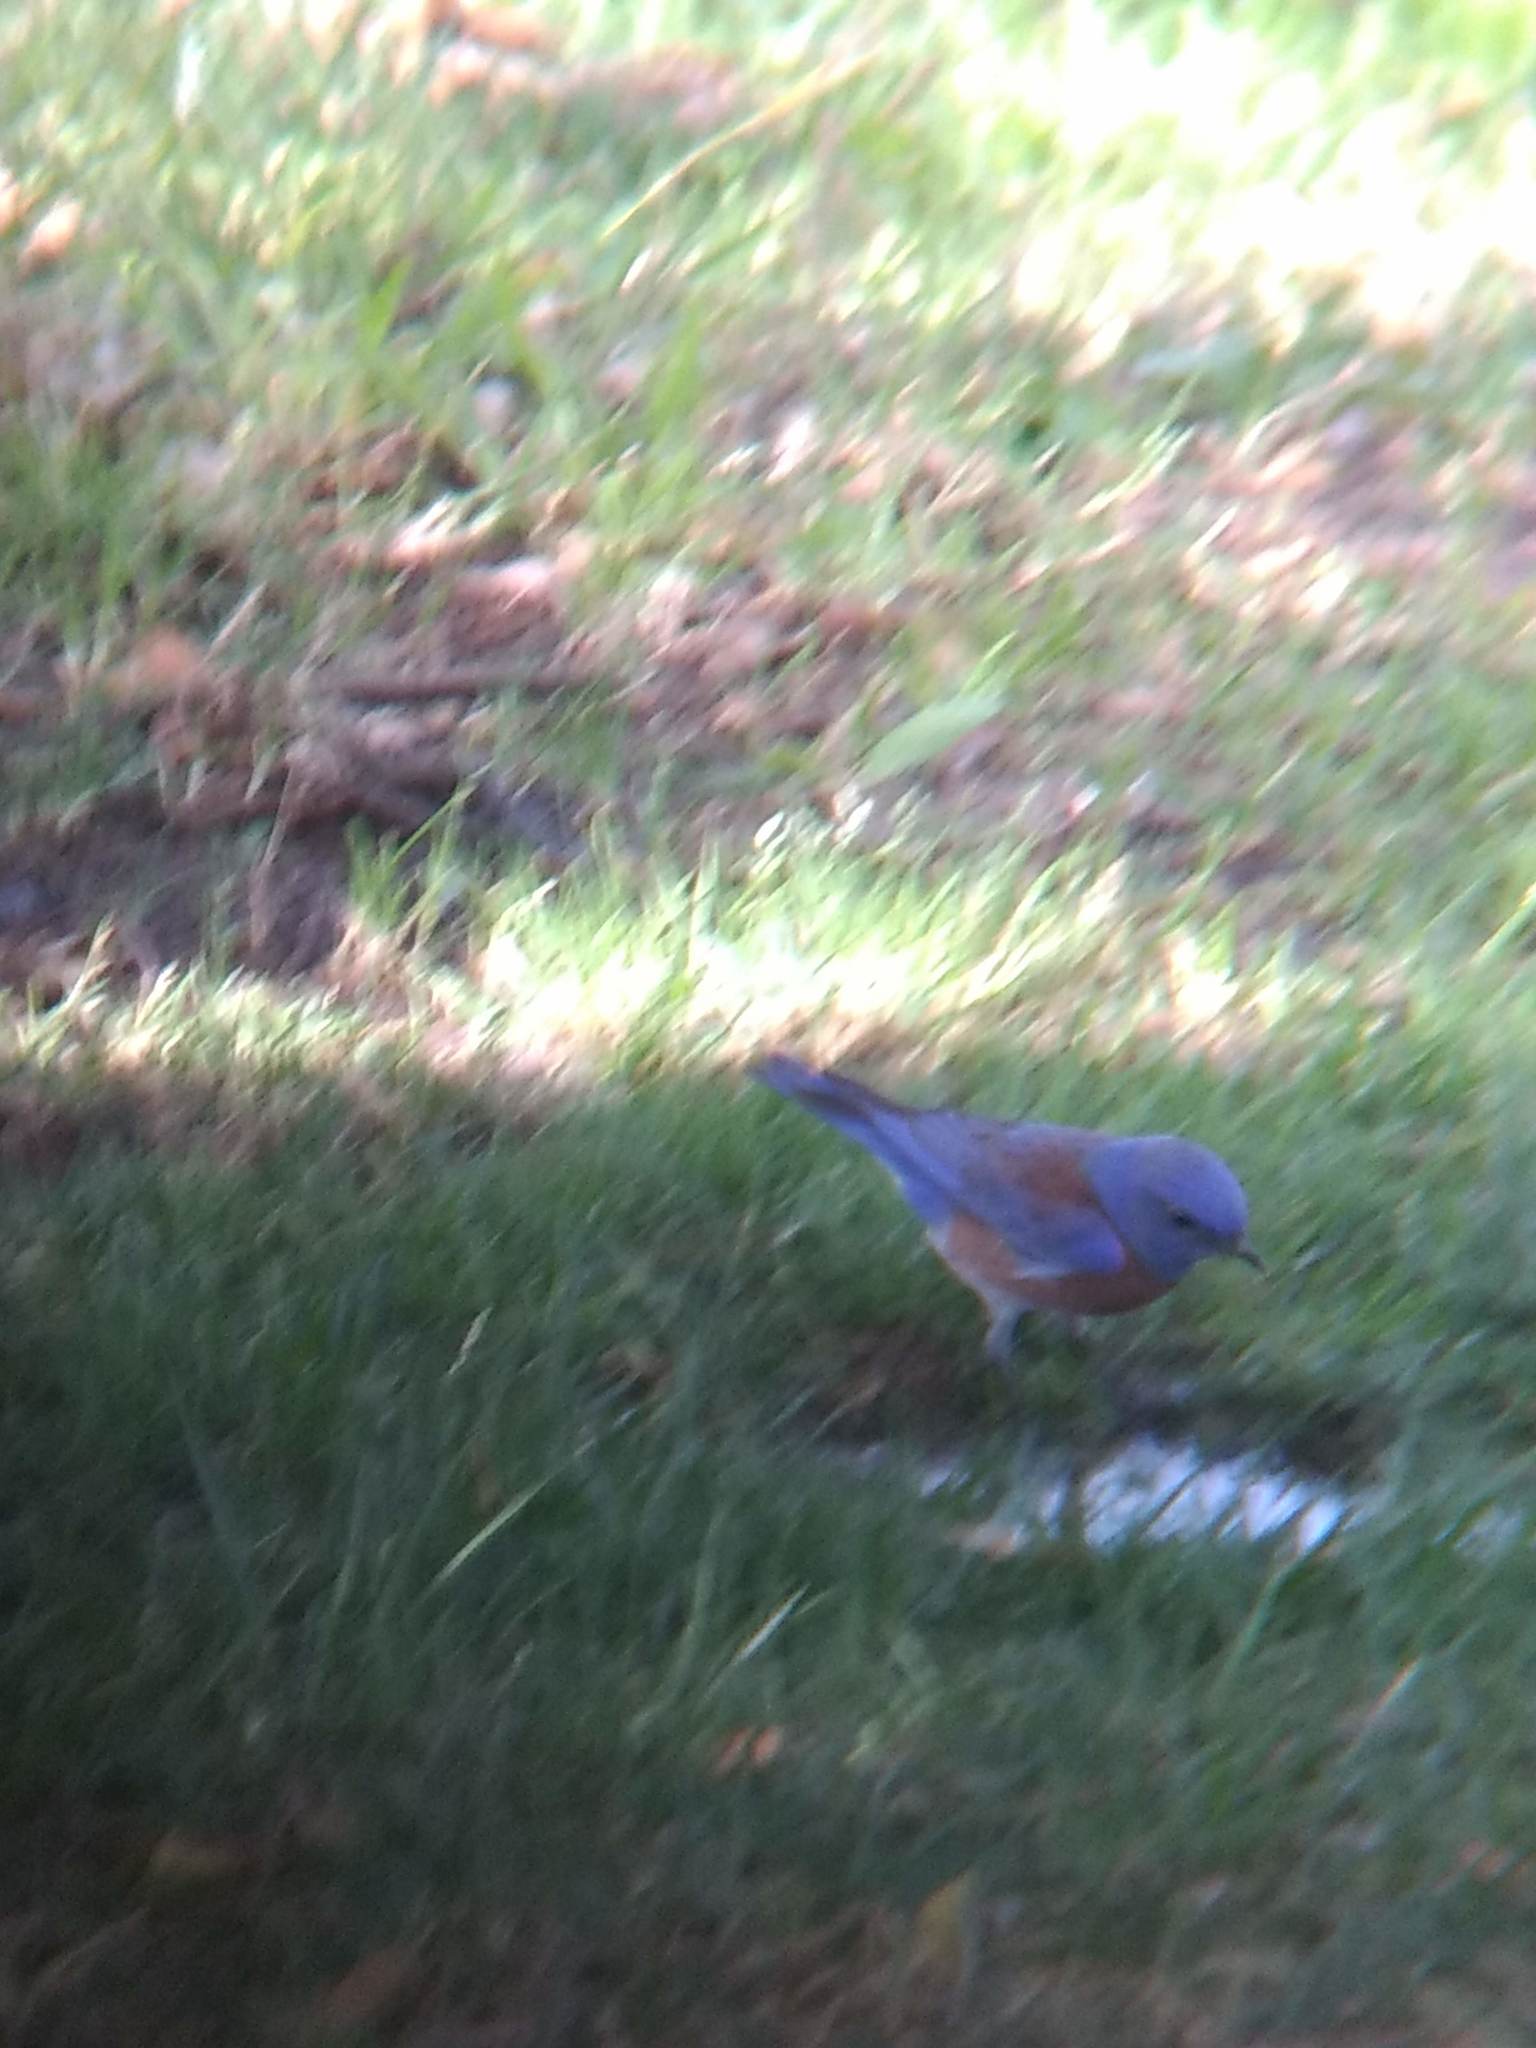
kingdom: Animalia
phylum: Chordata
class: Aves
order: Passeriformes
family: Turdidae
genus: Sialia
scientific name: Sialia mexicana
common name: Western bluebird
